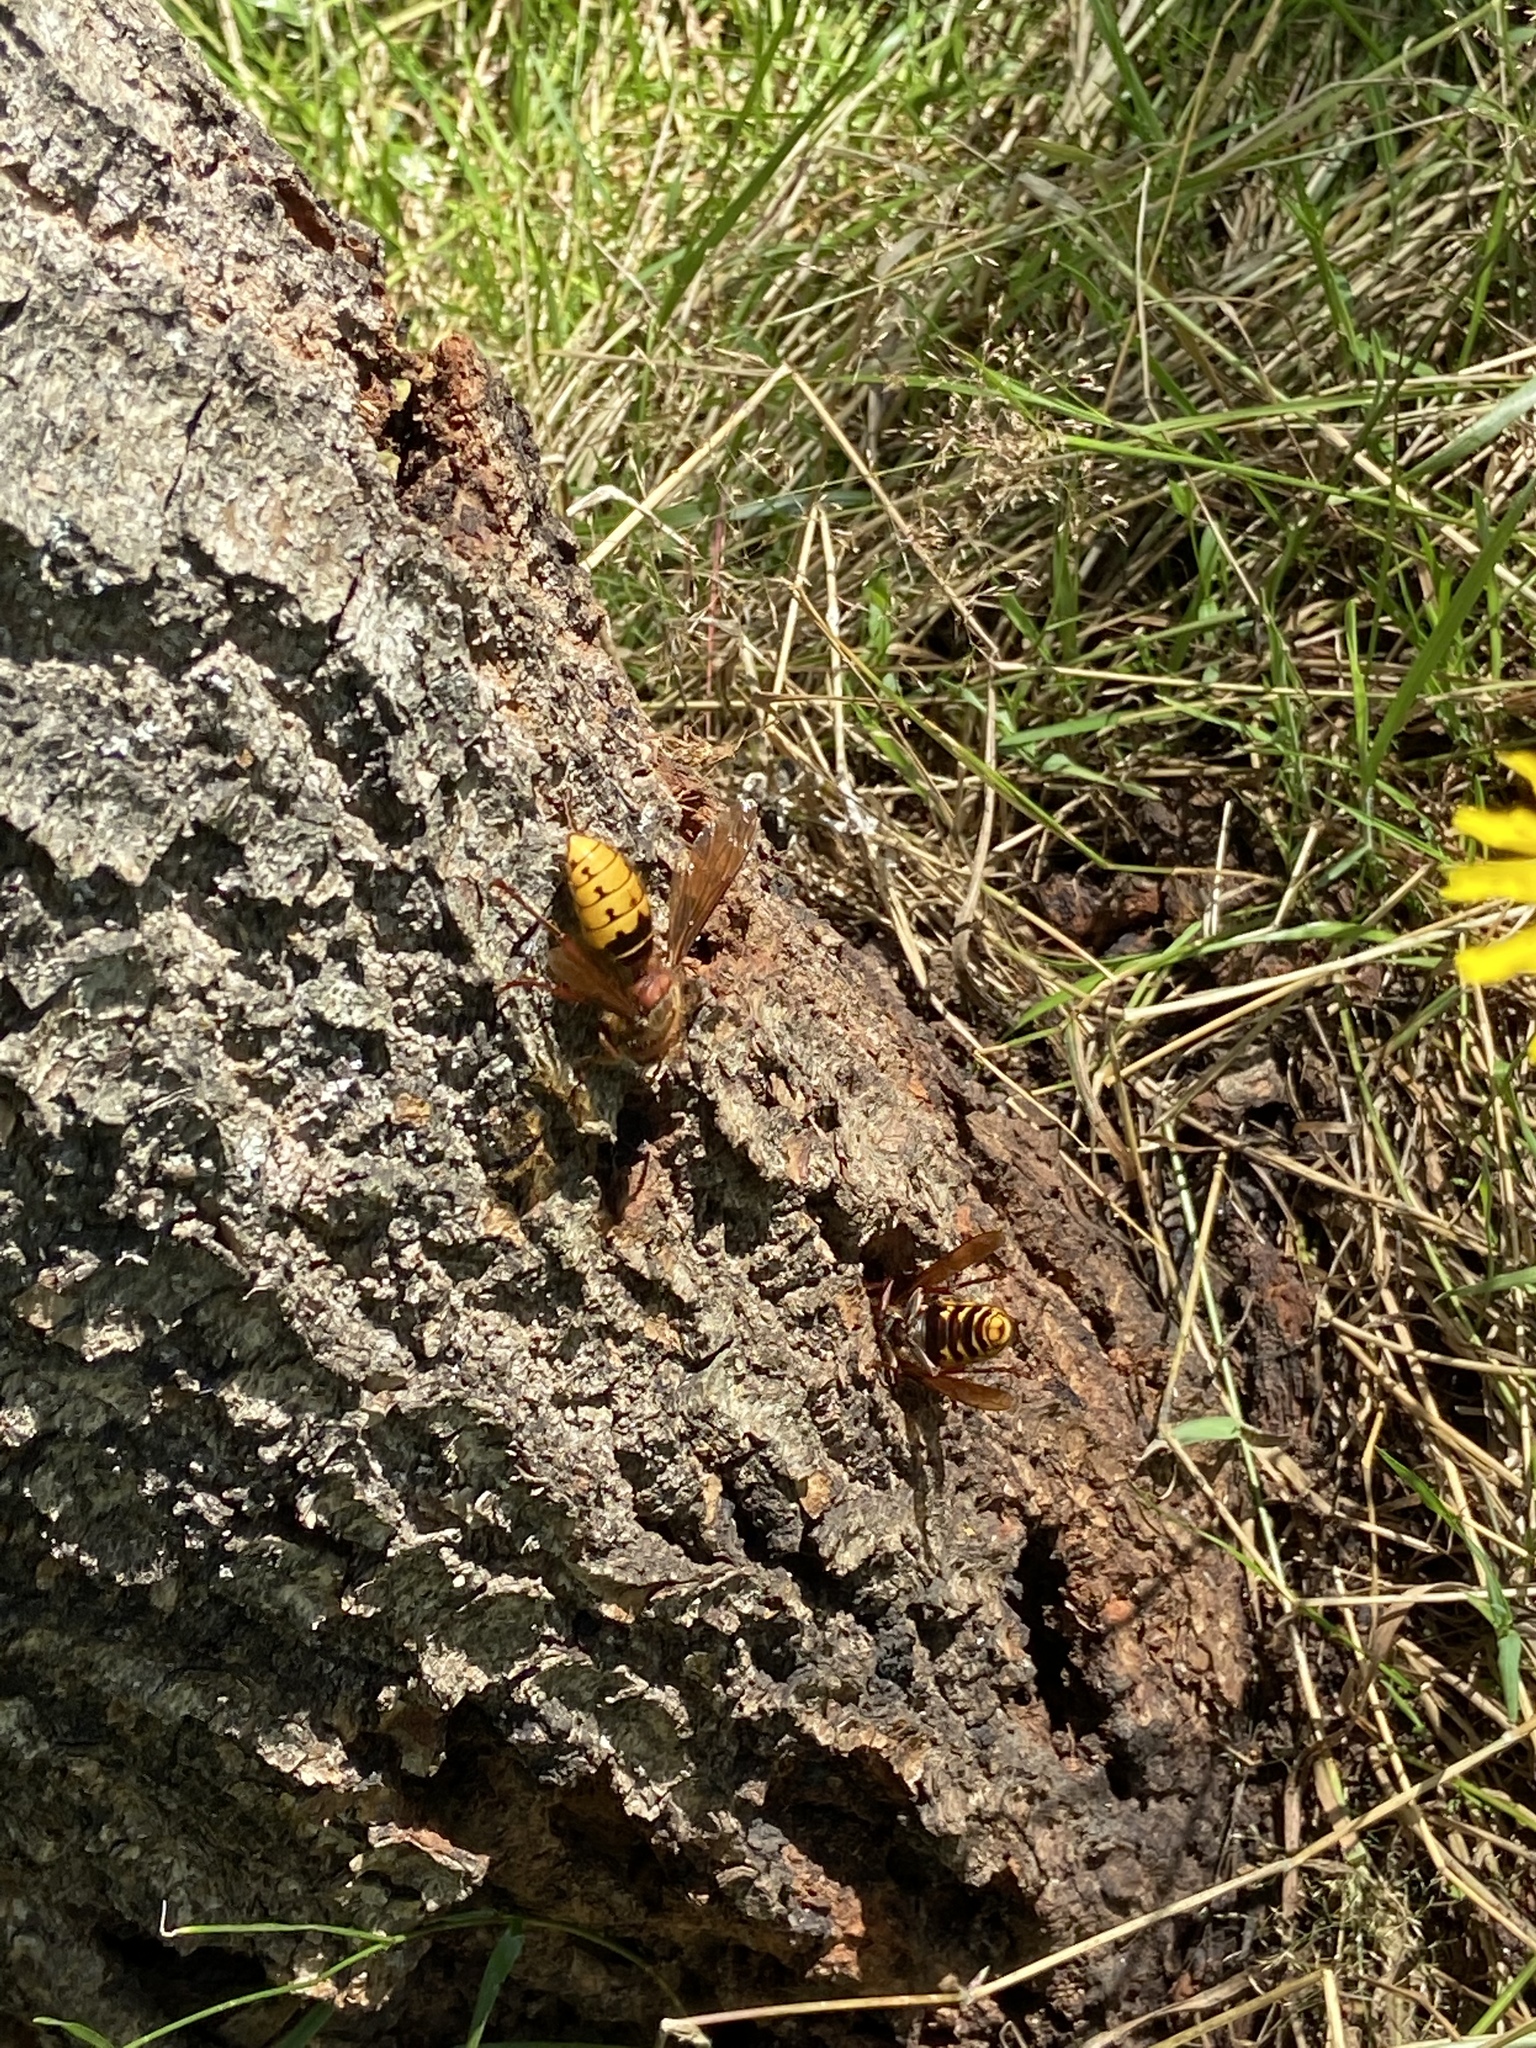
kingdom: Animalia
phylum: Arthropoda
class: Insecta
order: Hymenoptera
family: Vespidae
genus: Vespa
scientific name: Vespa crabro
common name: Hornet
